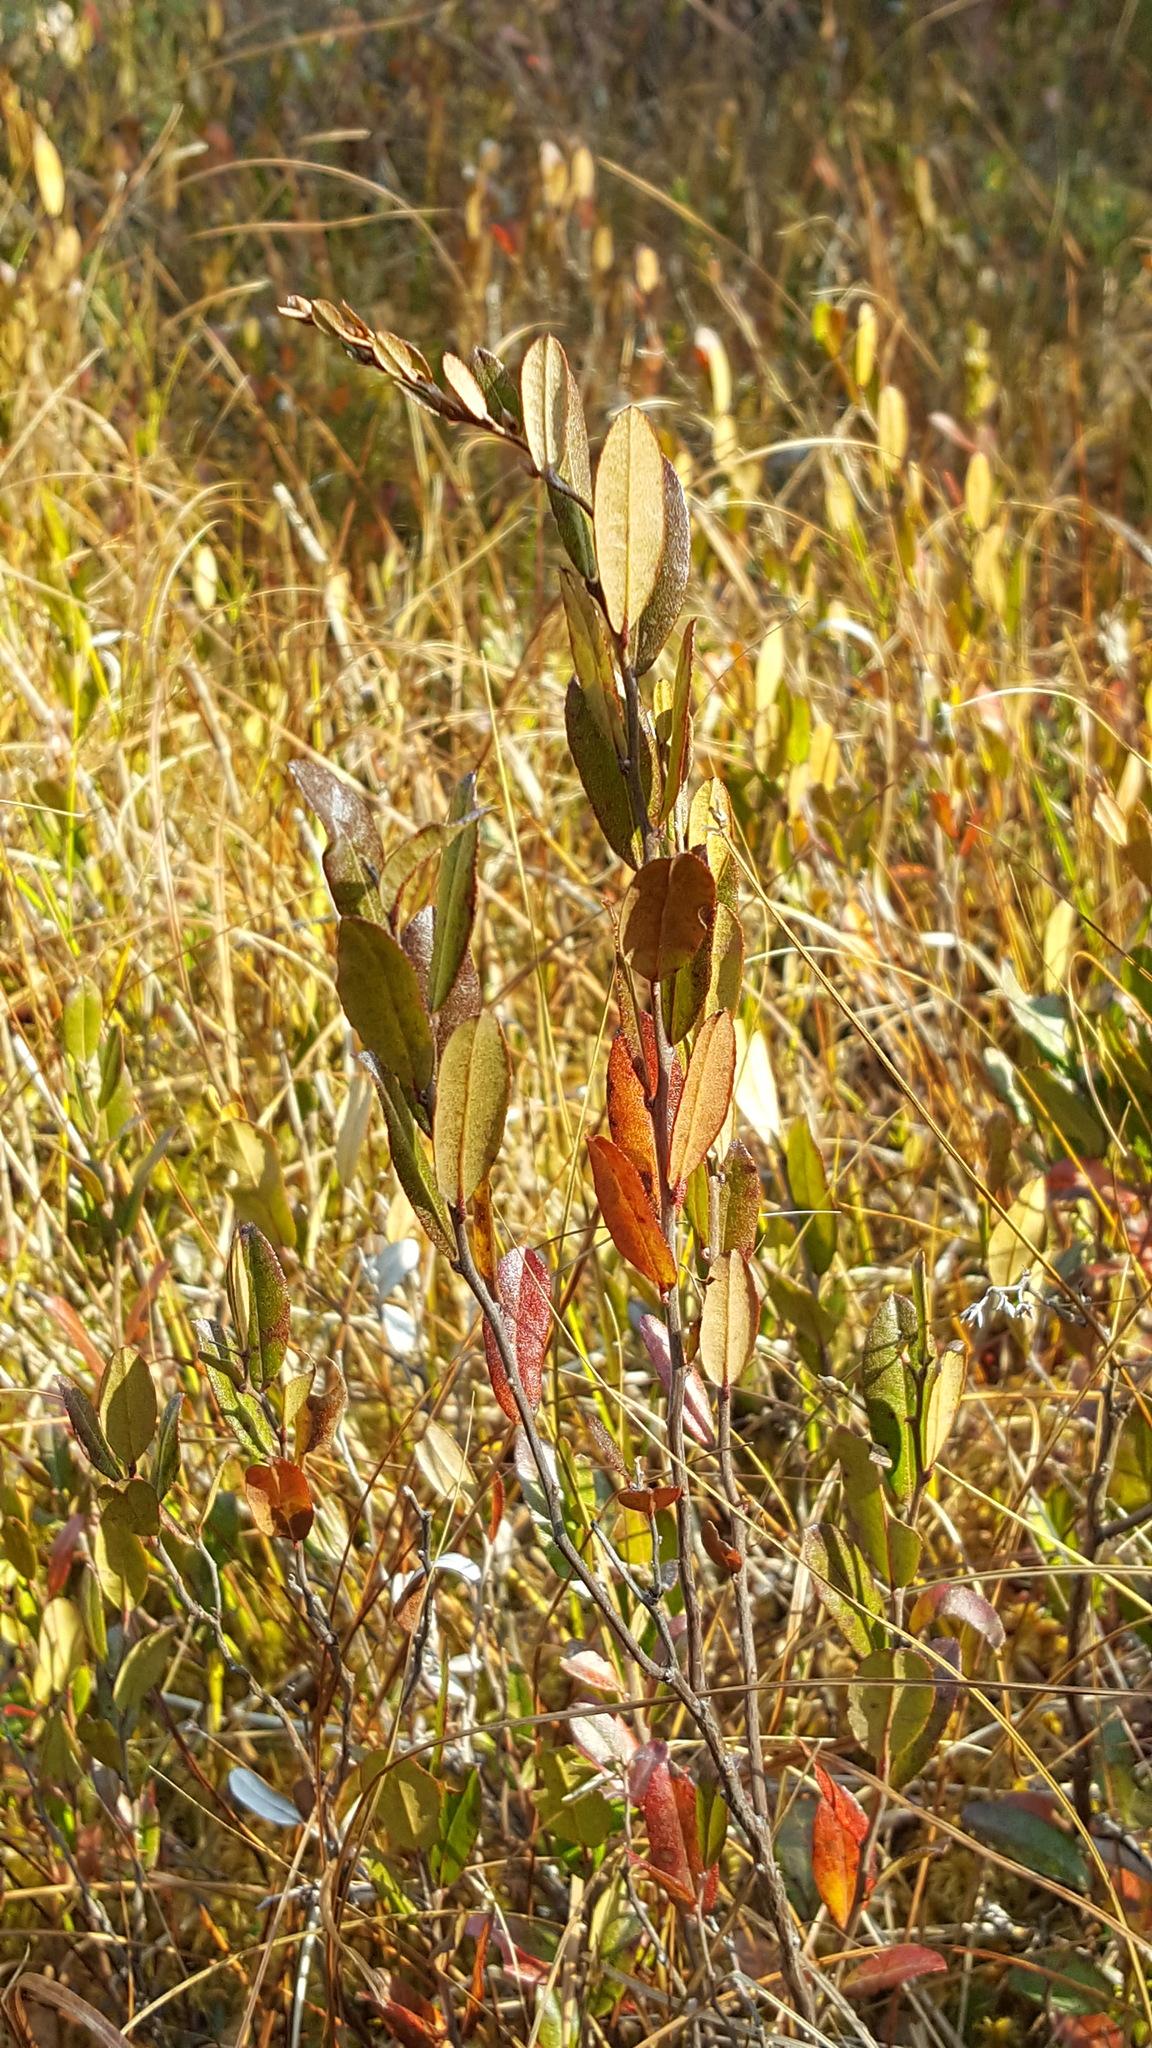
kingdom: Plantae
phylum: Tracheophyta
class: Magnoliopsida
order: Ericales
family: Ericaceae
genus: Chamaedaphne
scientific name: Chamaedaphne calyculata
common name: Leatherleaf
